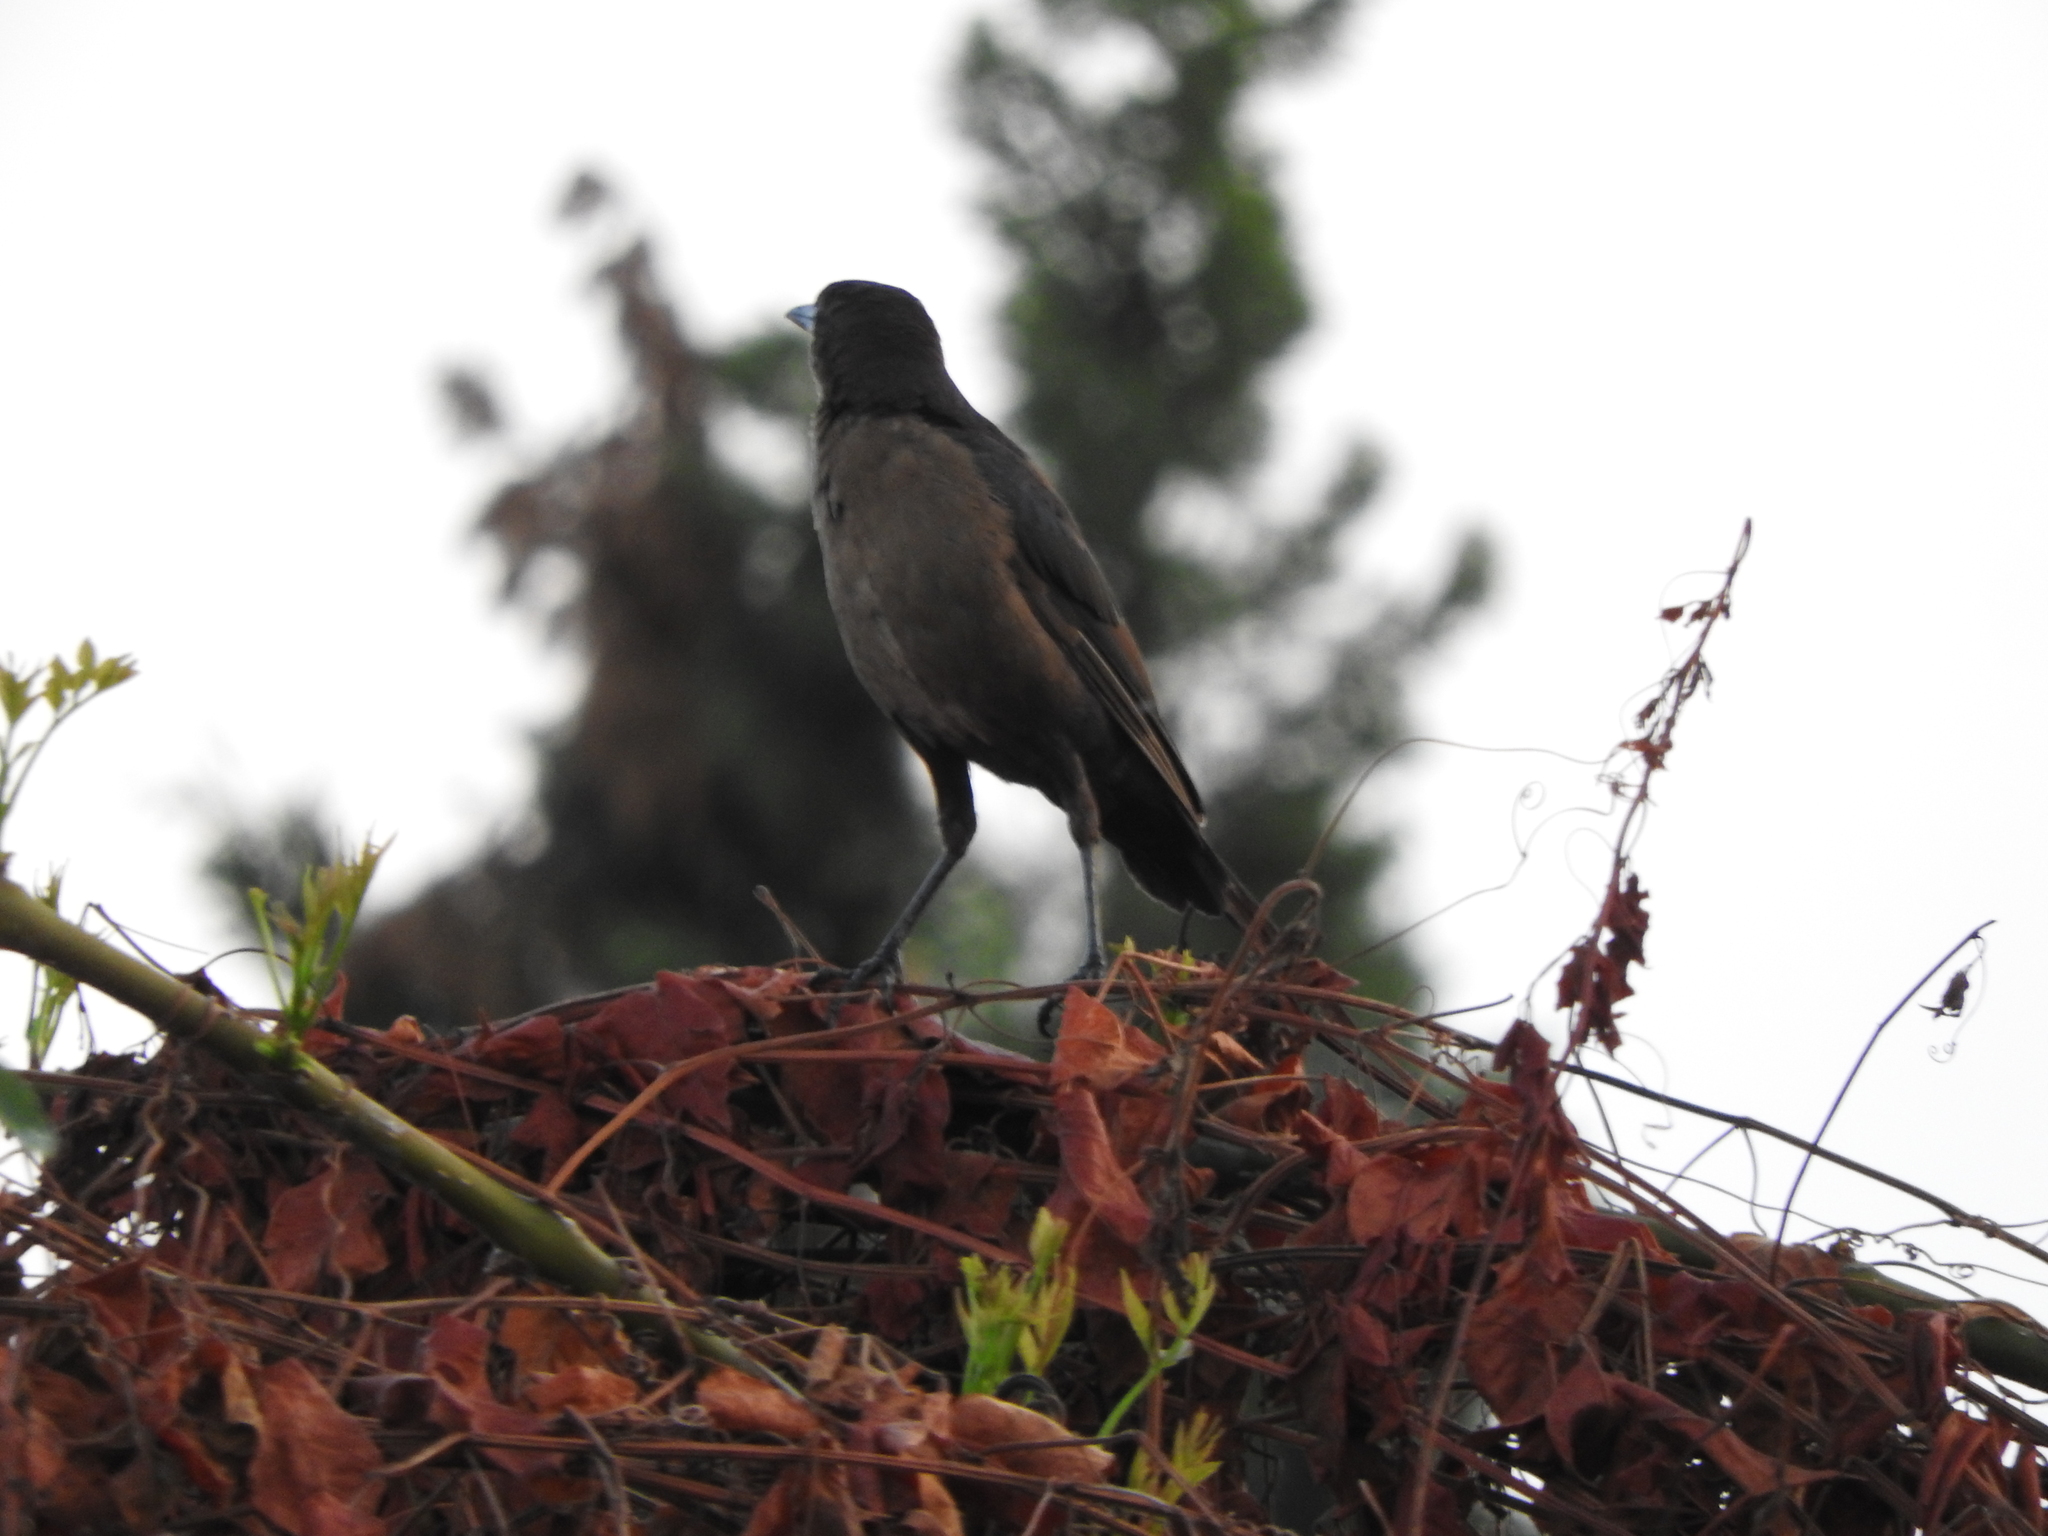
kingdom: Animalia
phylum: Chordata
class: Aves
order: Passeriformes
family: Icteridae
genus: Quiscalus
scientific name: Quiscalus mexicanus
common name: Great-tailed grackle
